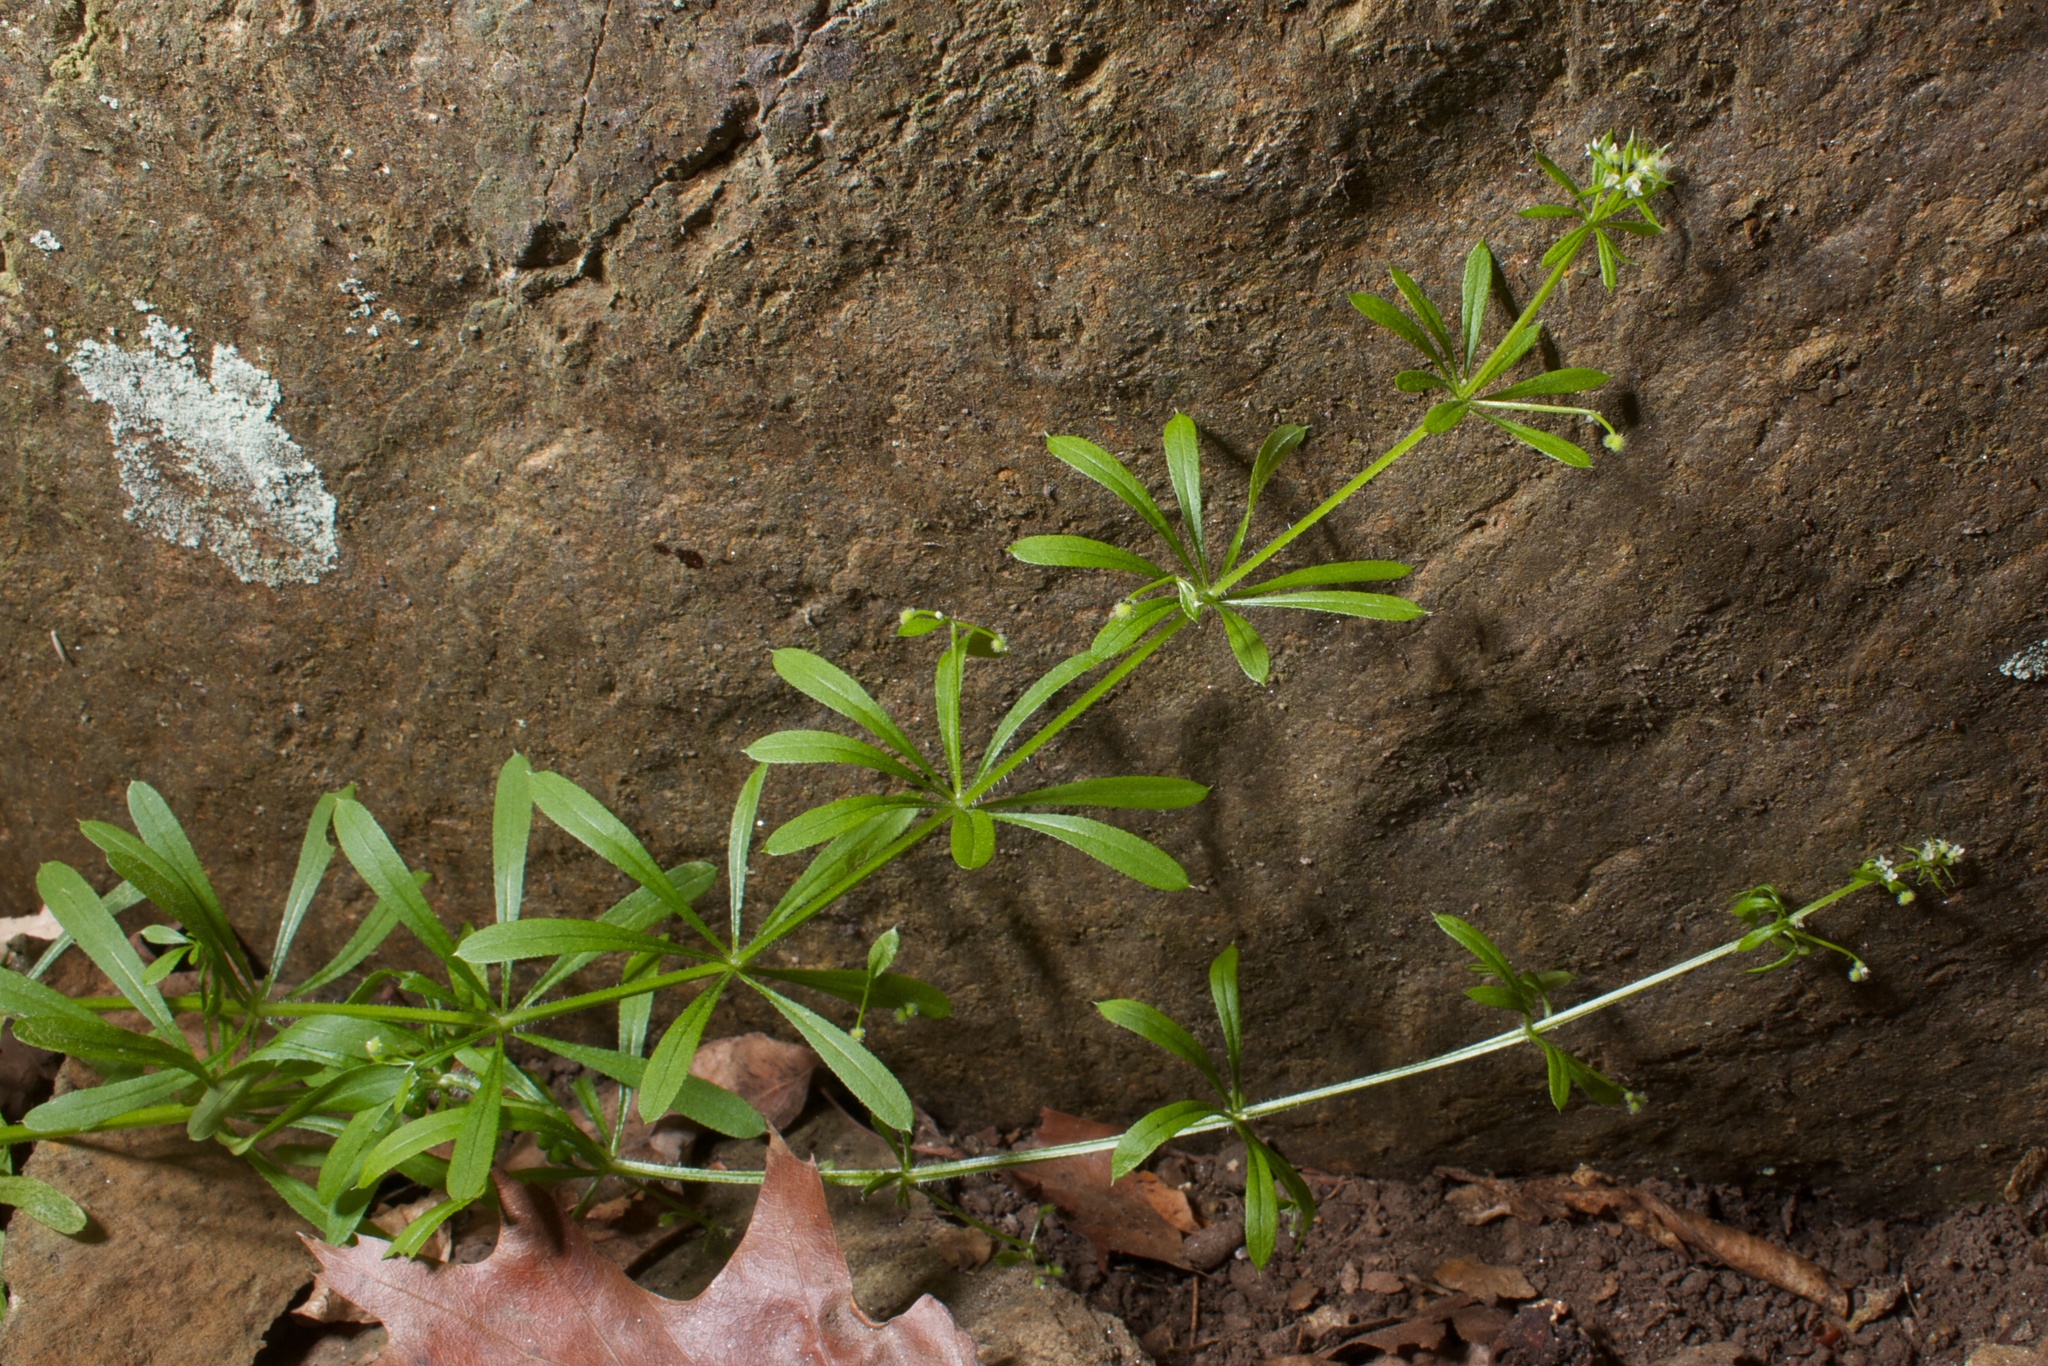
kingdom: Plantae
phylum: Tracheophyta
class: Magnoliopsida
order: Gentianales
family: Rubiaceae
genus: Galium
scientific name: Galium aparine
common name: Cleavers
